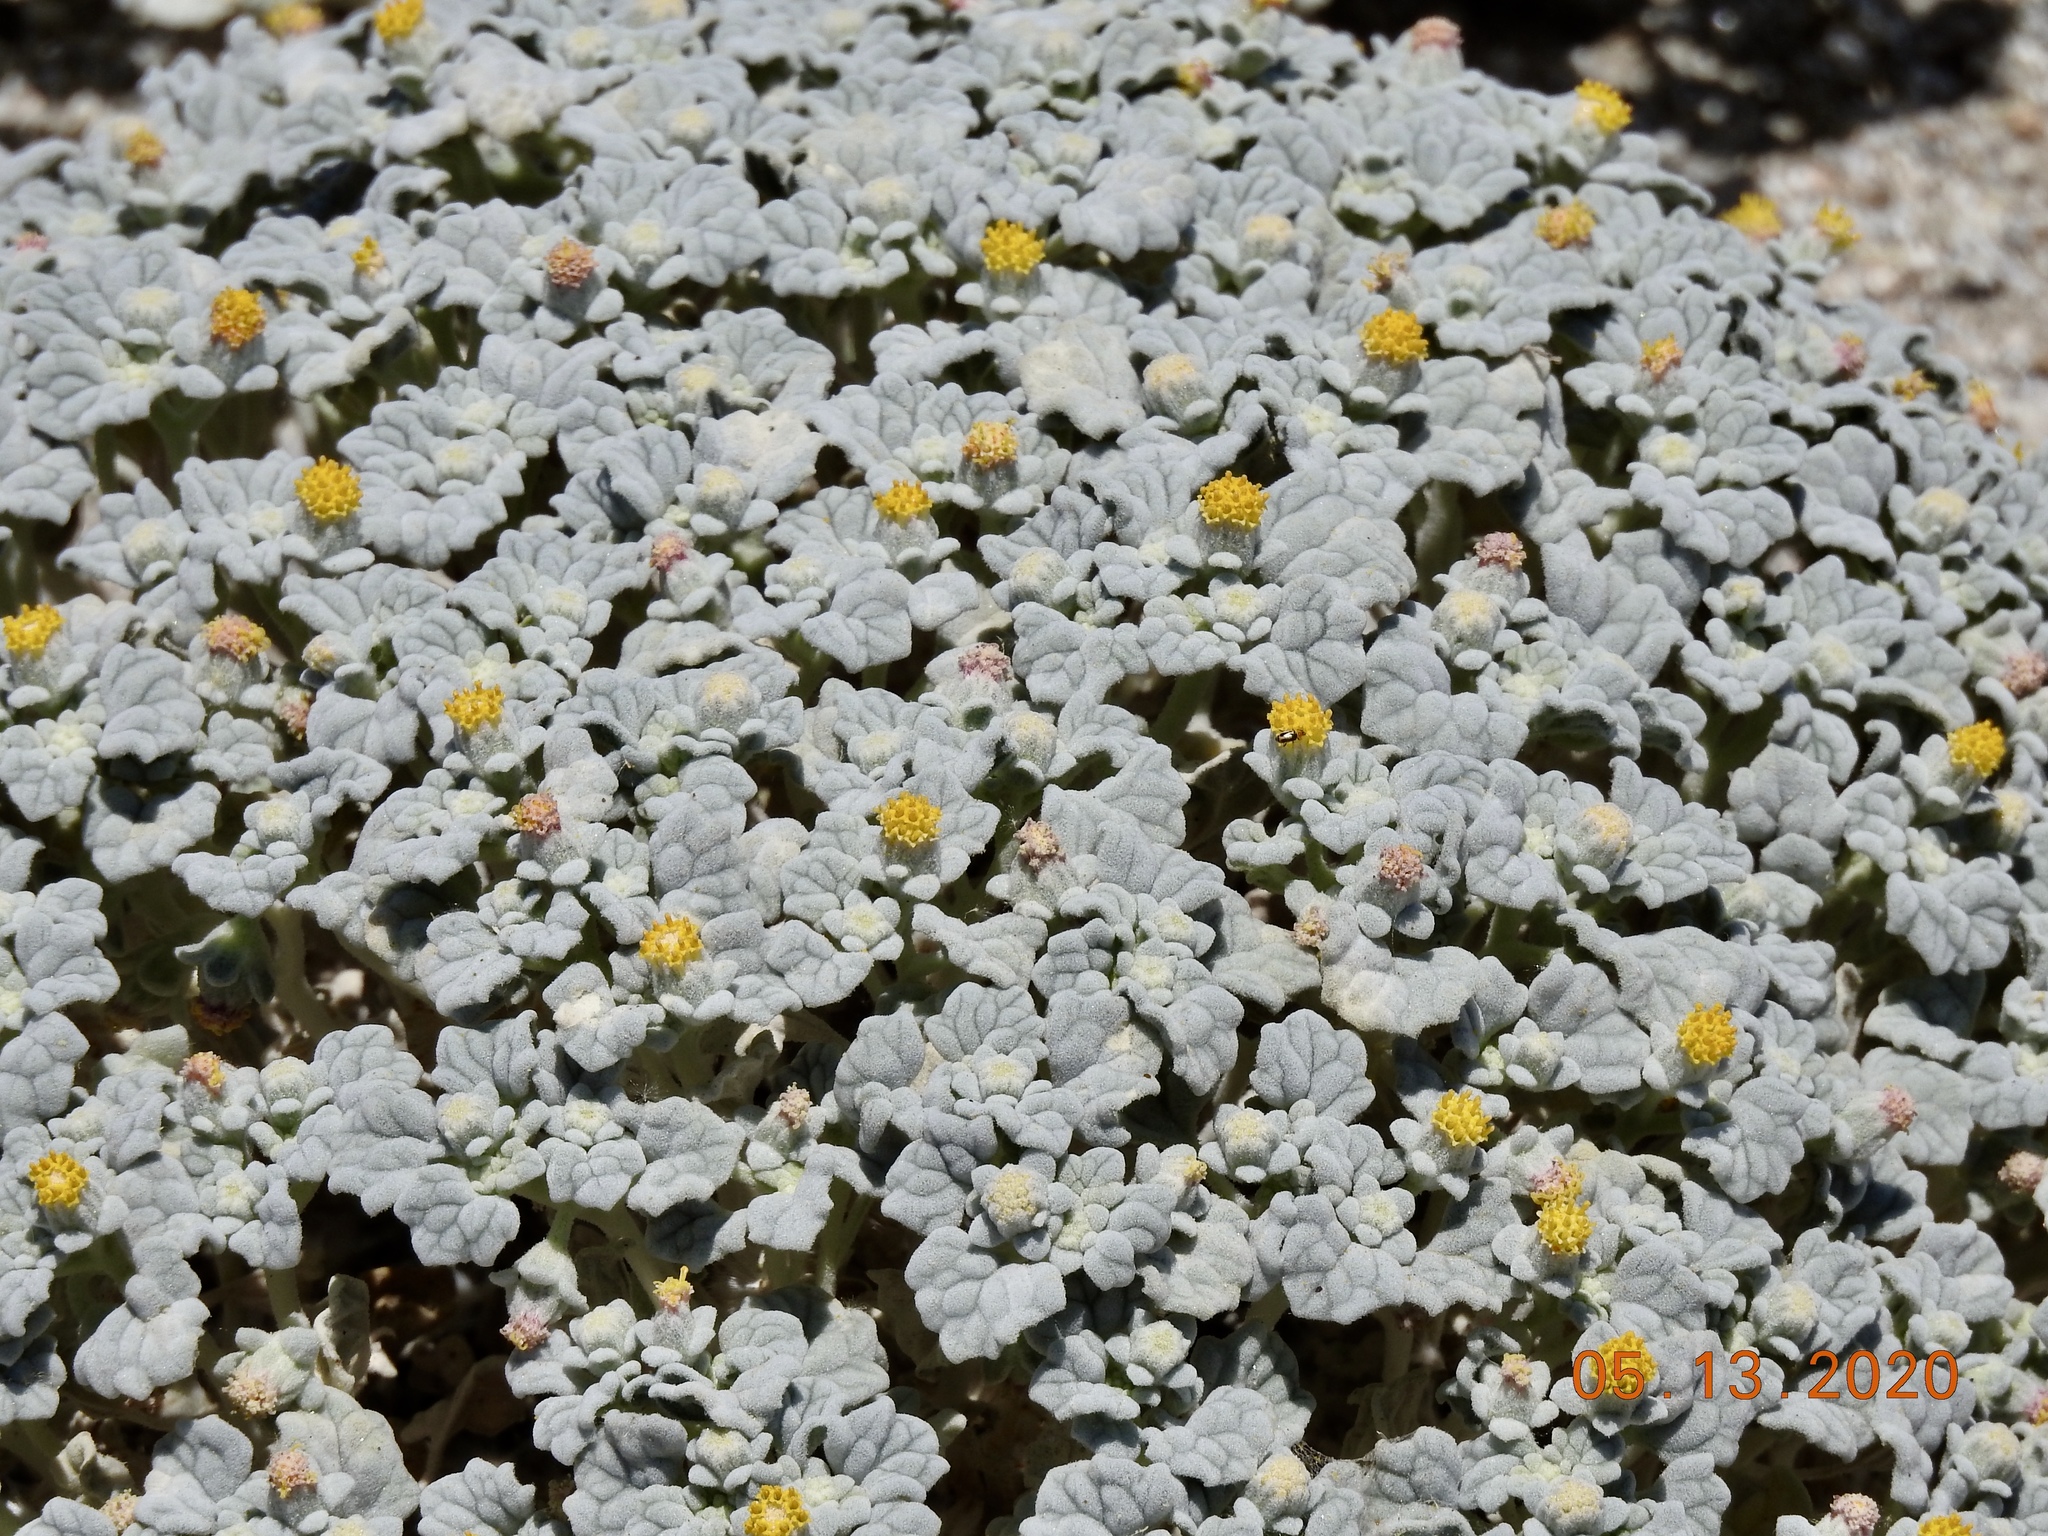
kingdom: Plantae
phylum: Tracheophyta
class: Magnoliopsida
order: Asterales
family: Asteraceae
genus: Psathyrotes
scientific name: Psathyrotes ramosissima
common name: Turtleback
